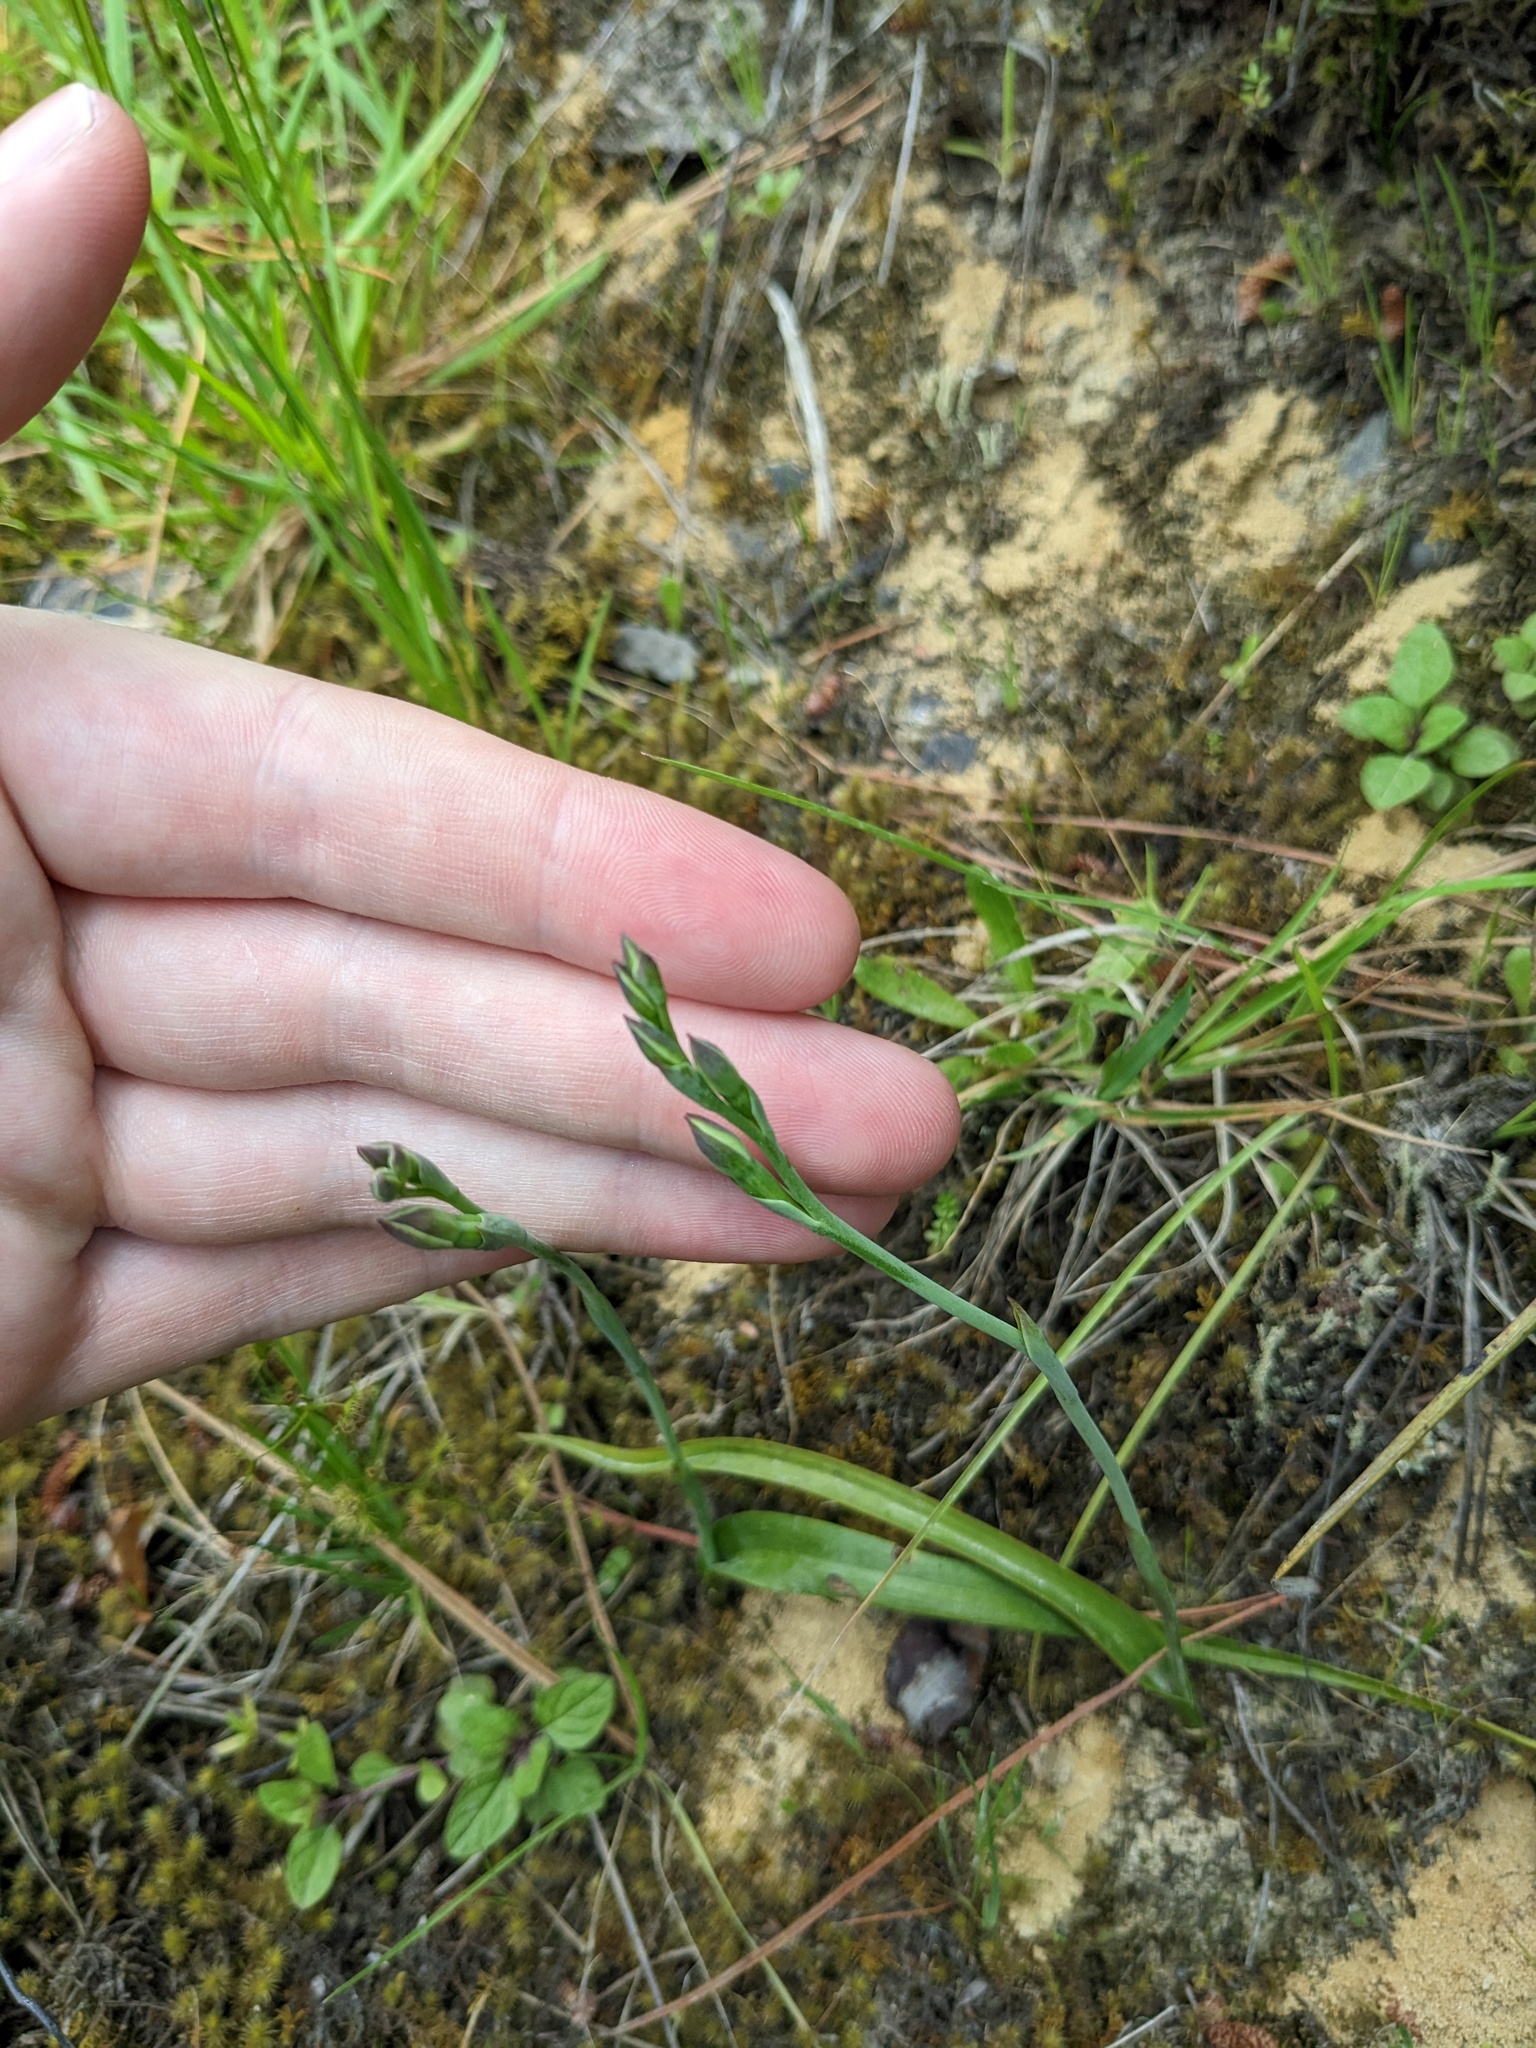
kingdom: Plantae
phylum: Tracheophyta
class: Liliopsida
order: Asparagales
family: Orchidaceae
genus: Thelymitra
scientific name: Thelymitra longifolia
